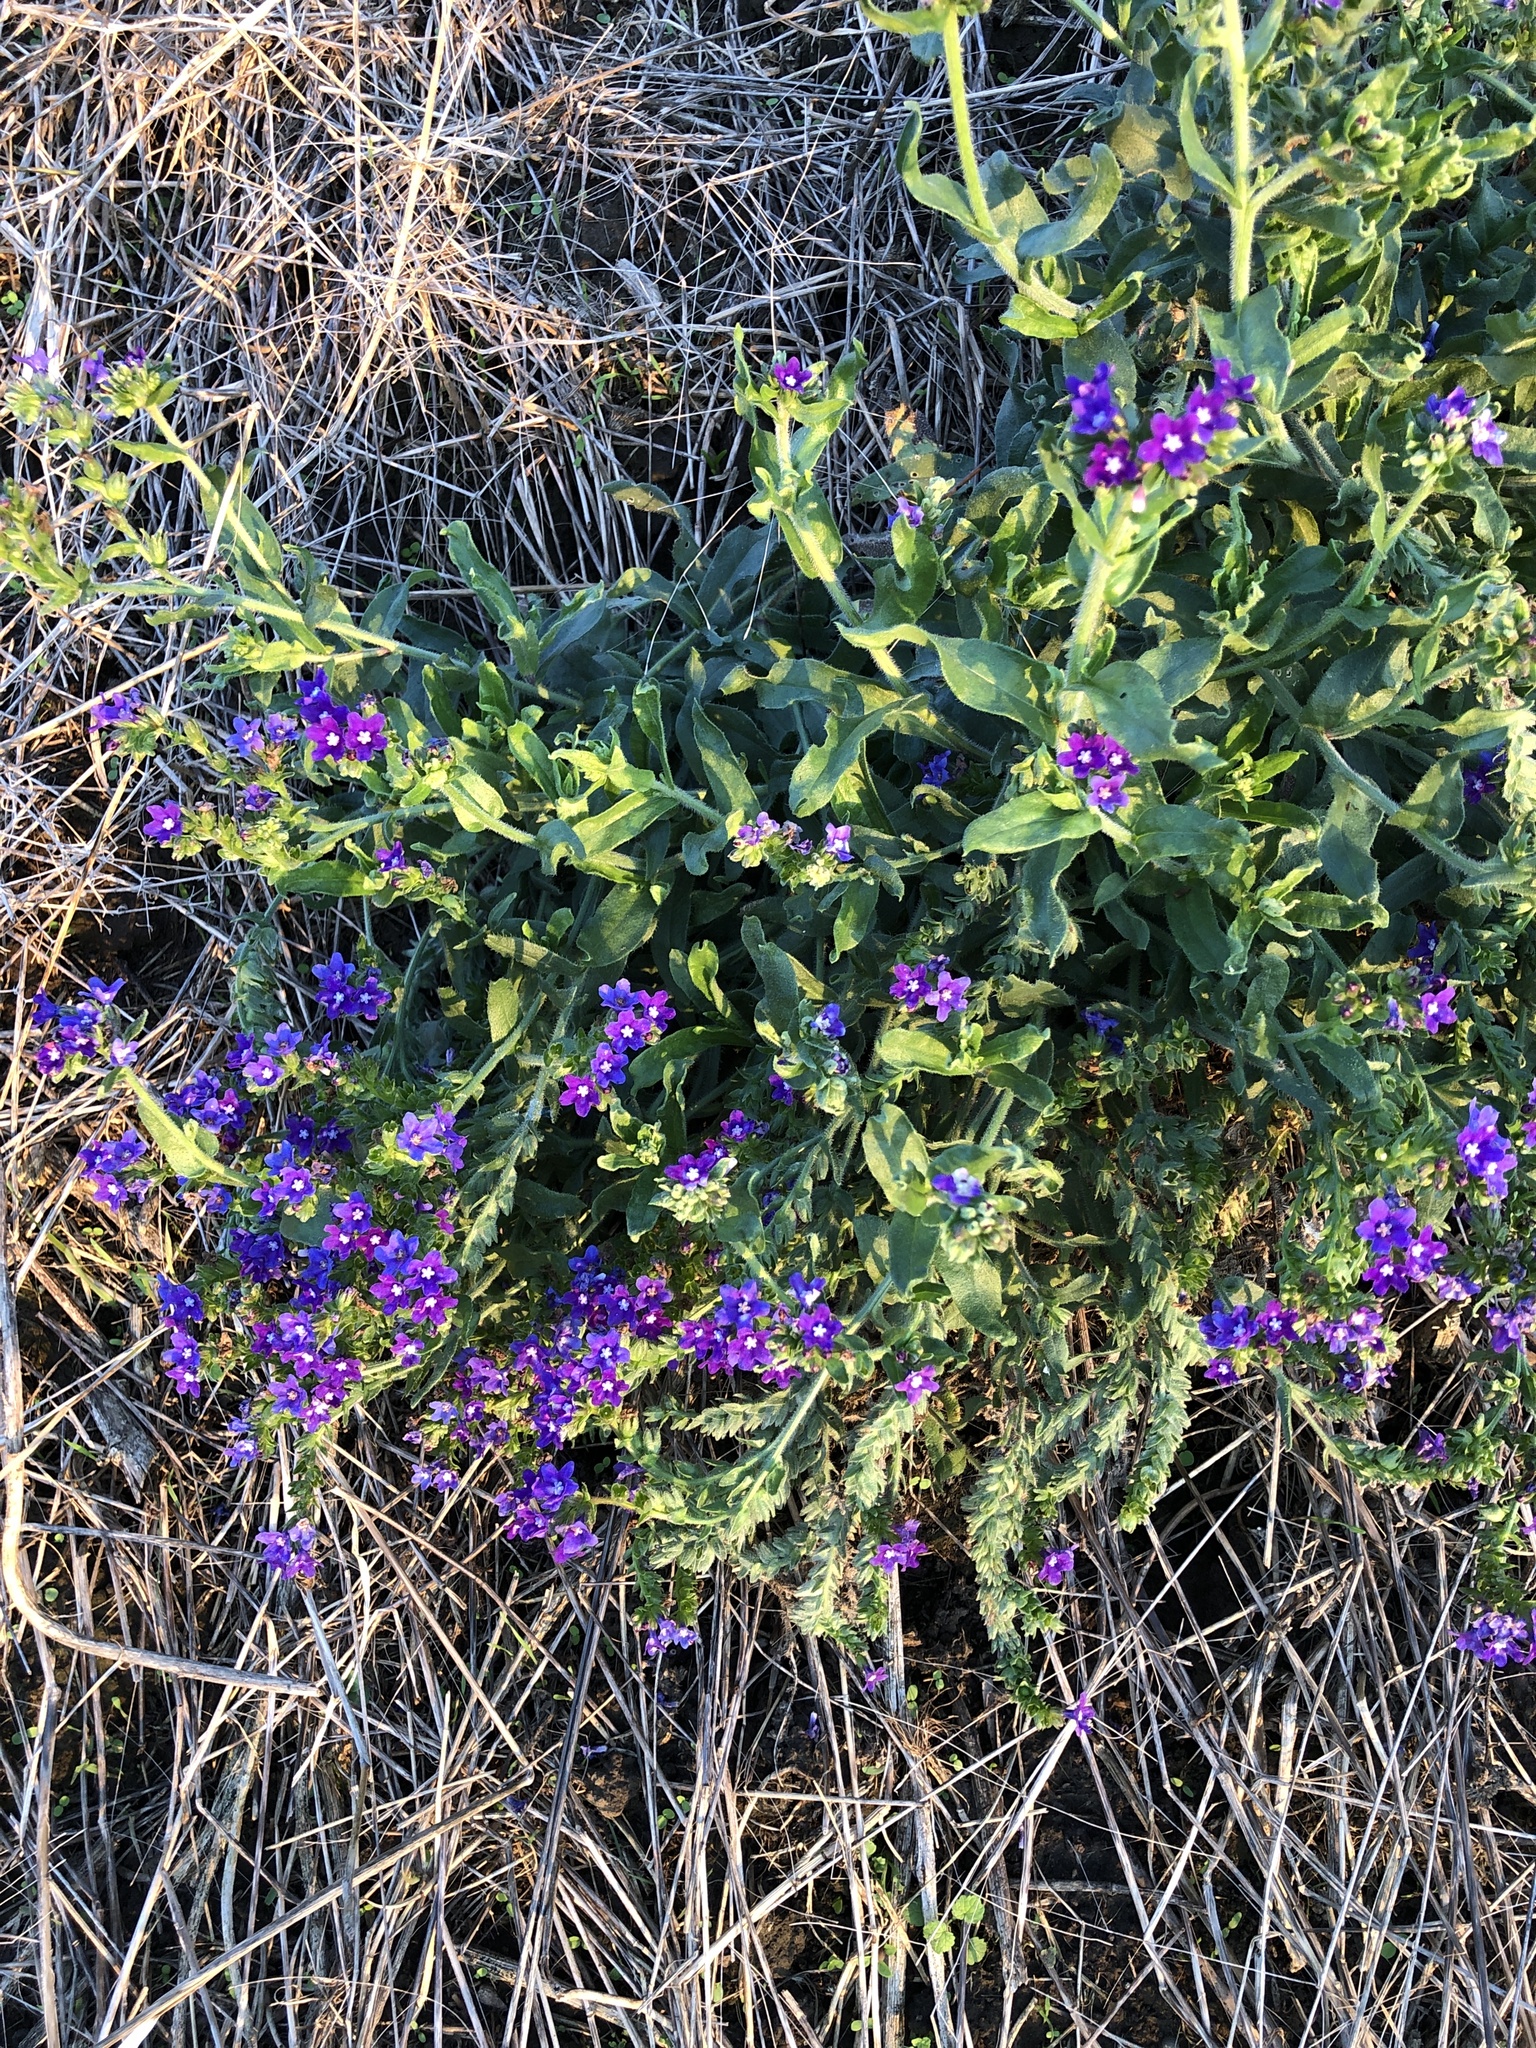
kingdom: Plantae
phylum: Tracheophyta
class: Magnoliopsida
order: Boraginales
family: Boraginaceae
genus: Anchusa
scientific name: Anchusa officinalis
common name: Alkanet
